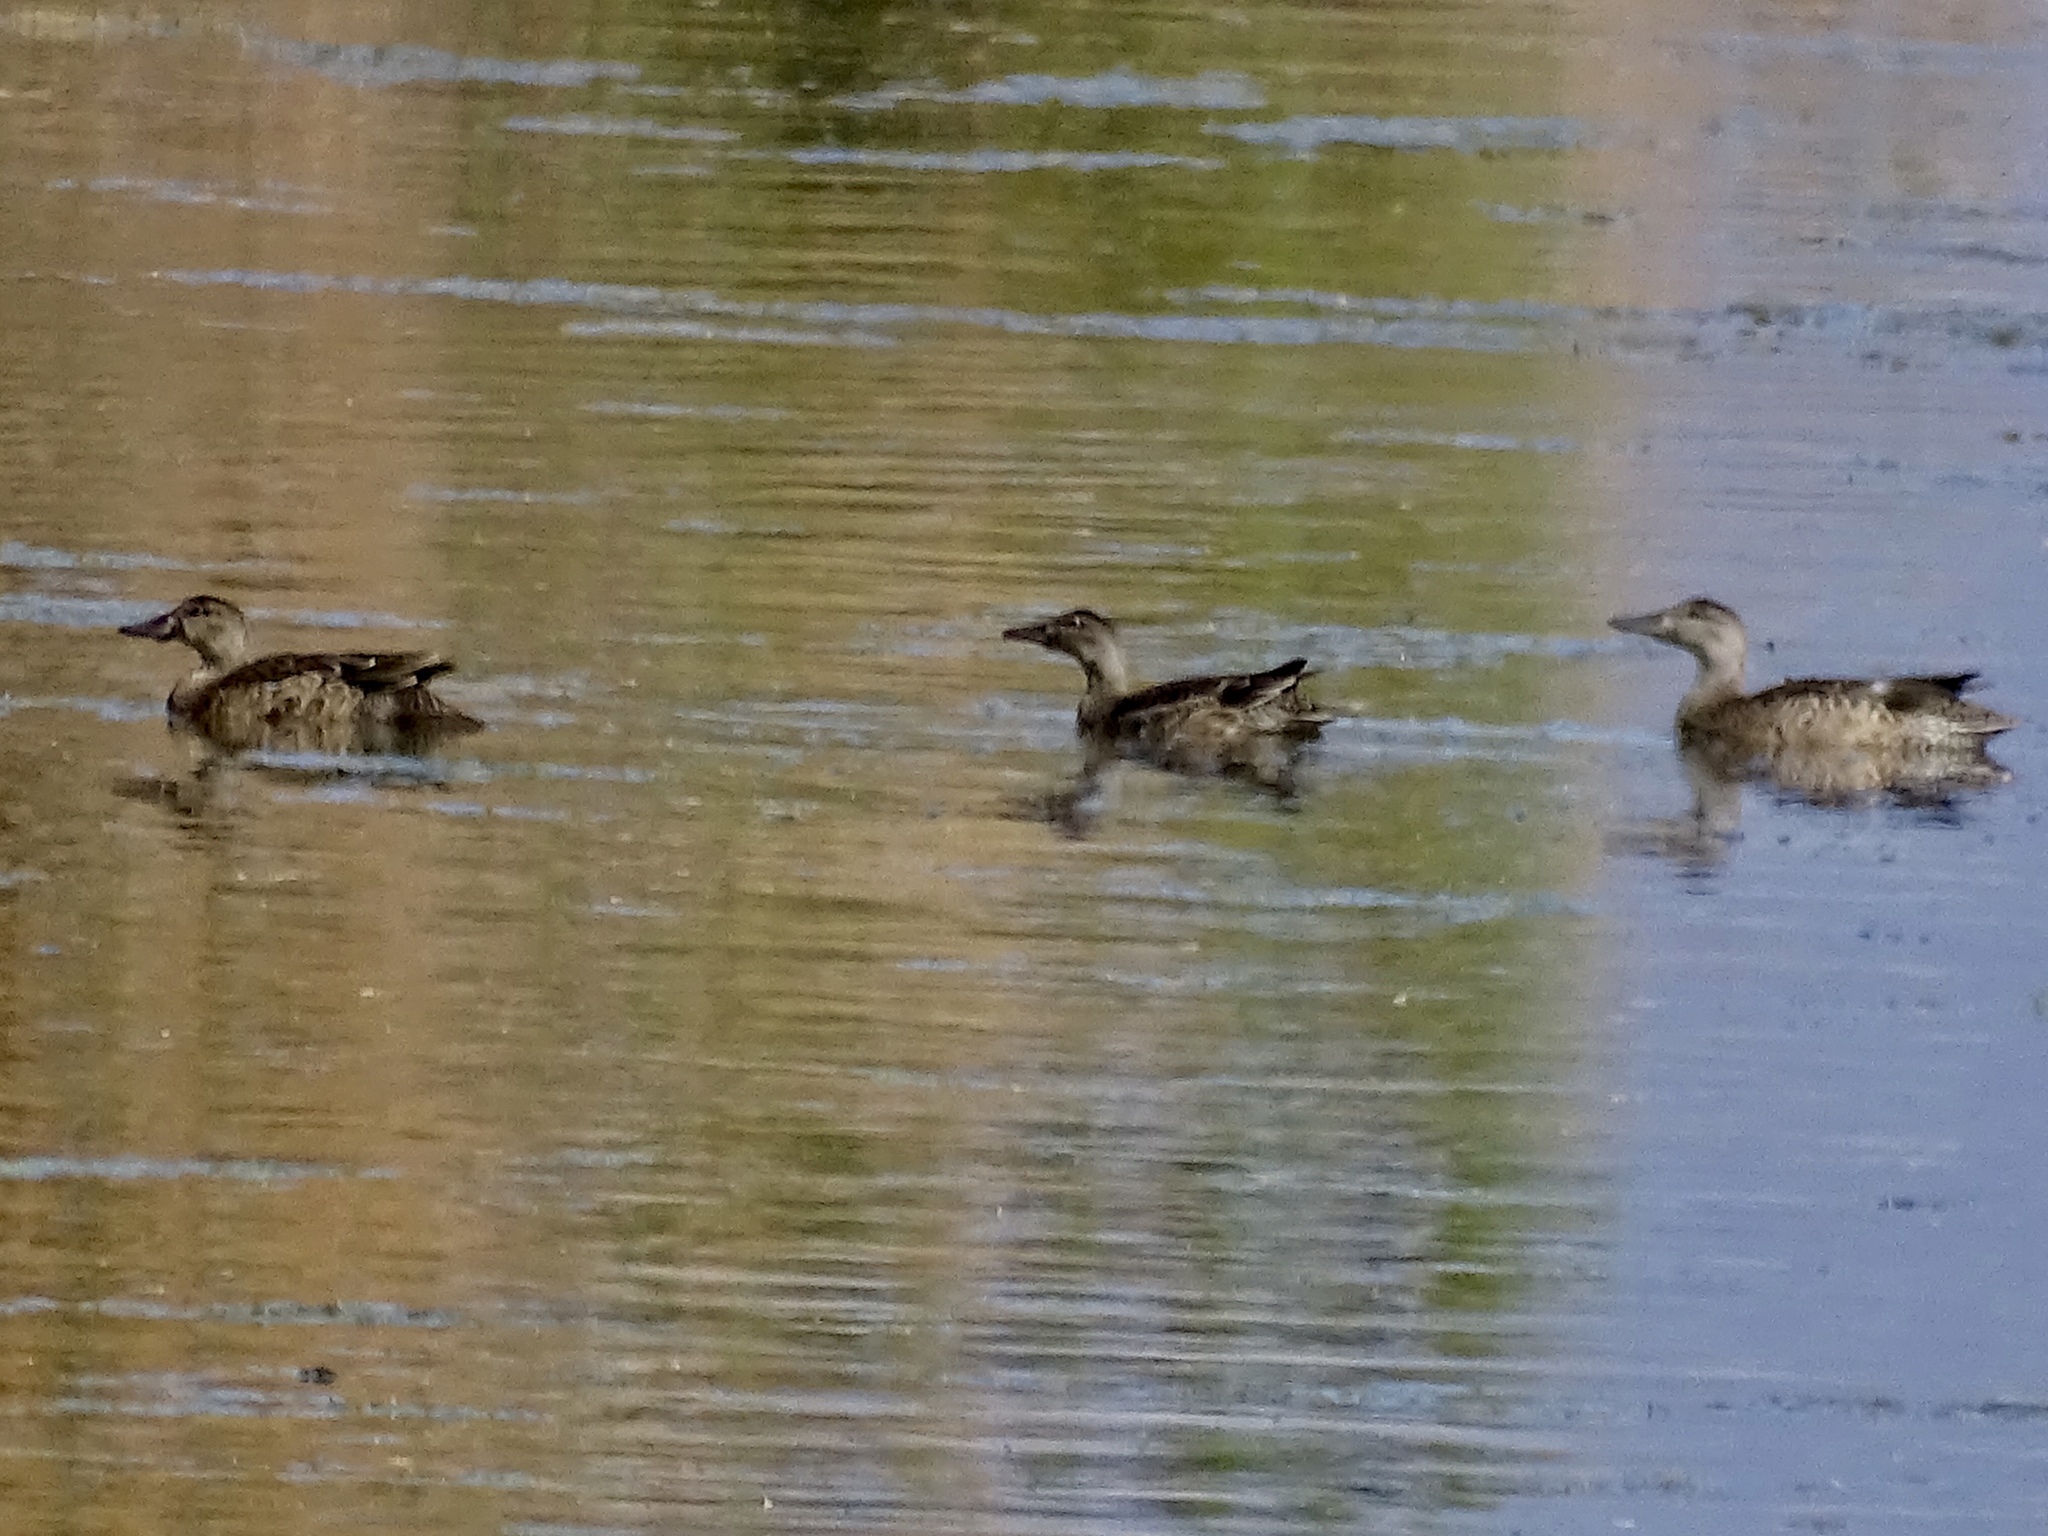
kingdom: Animalia
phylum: Chordata
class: Aves
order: Anseriformes
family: Anatidae
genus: Spatula
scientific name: Spatula discors
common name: Blue-winged teal
